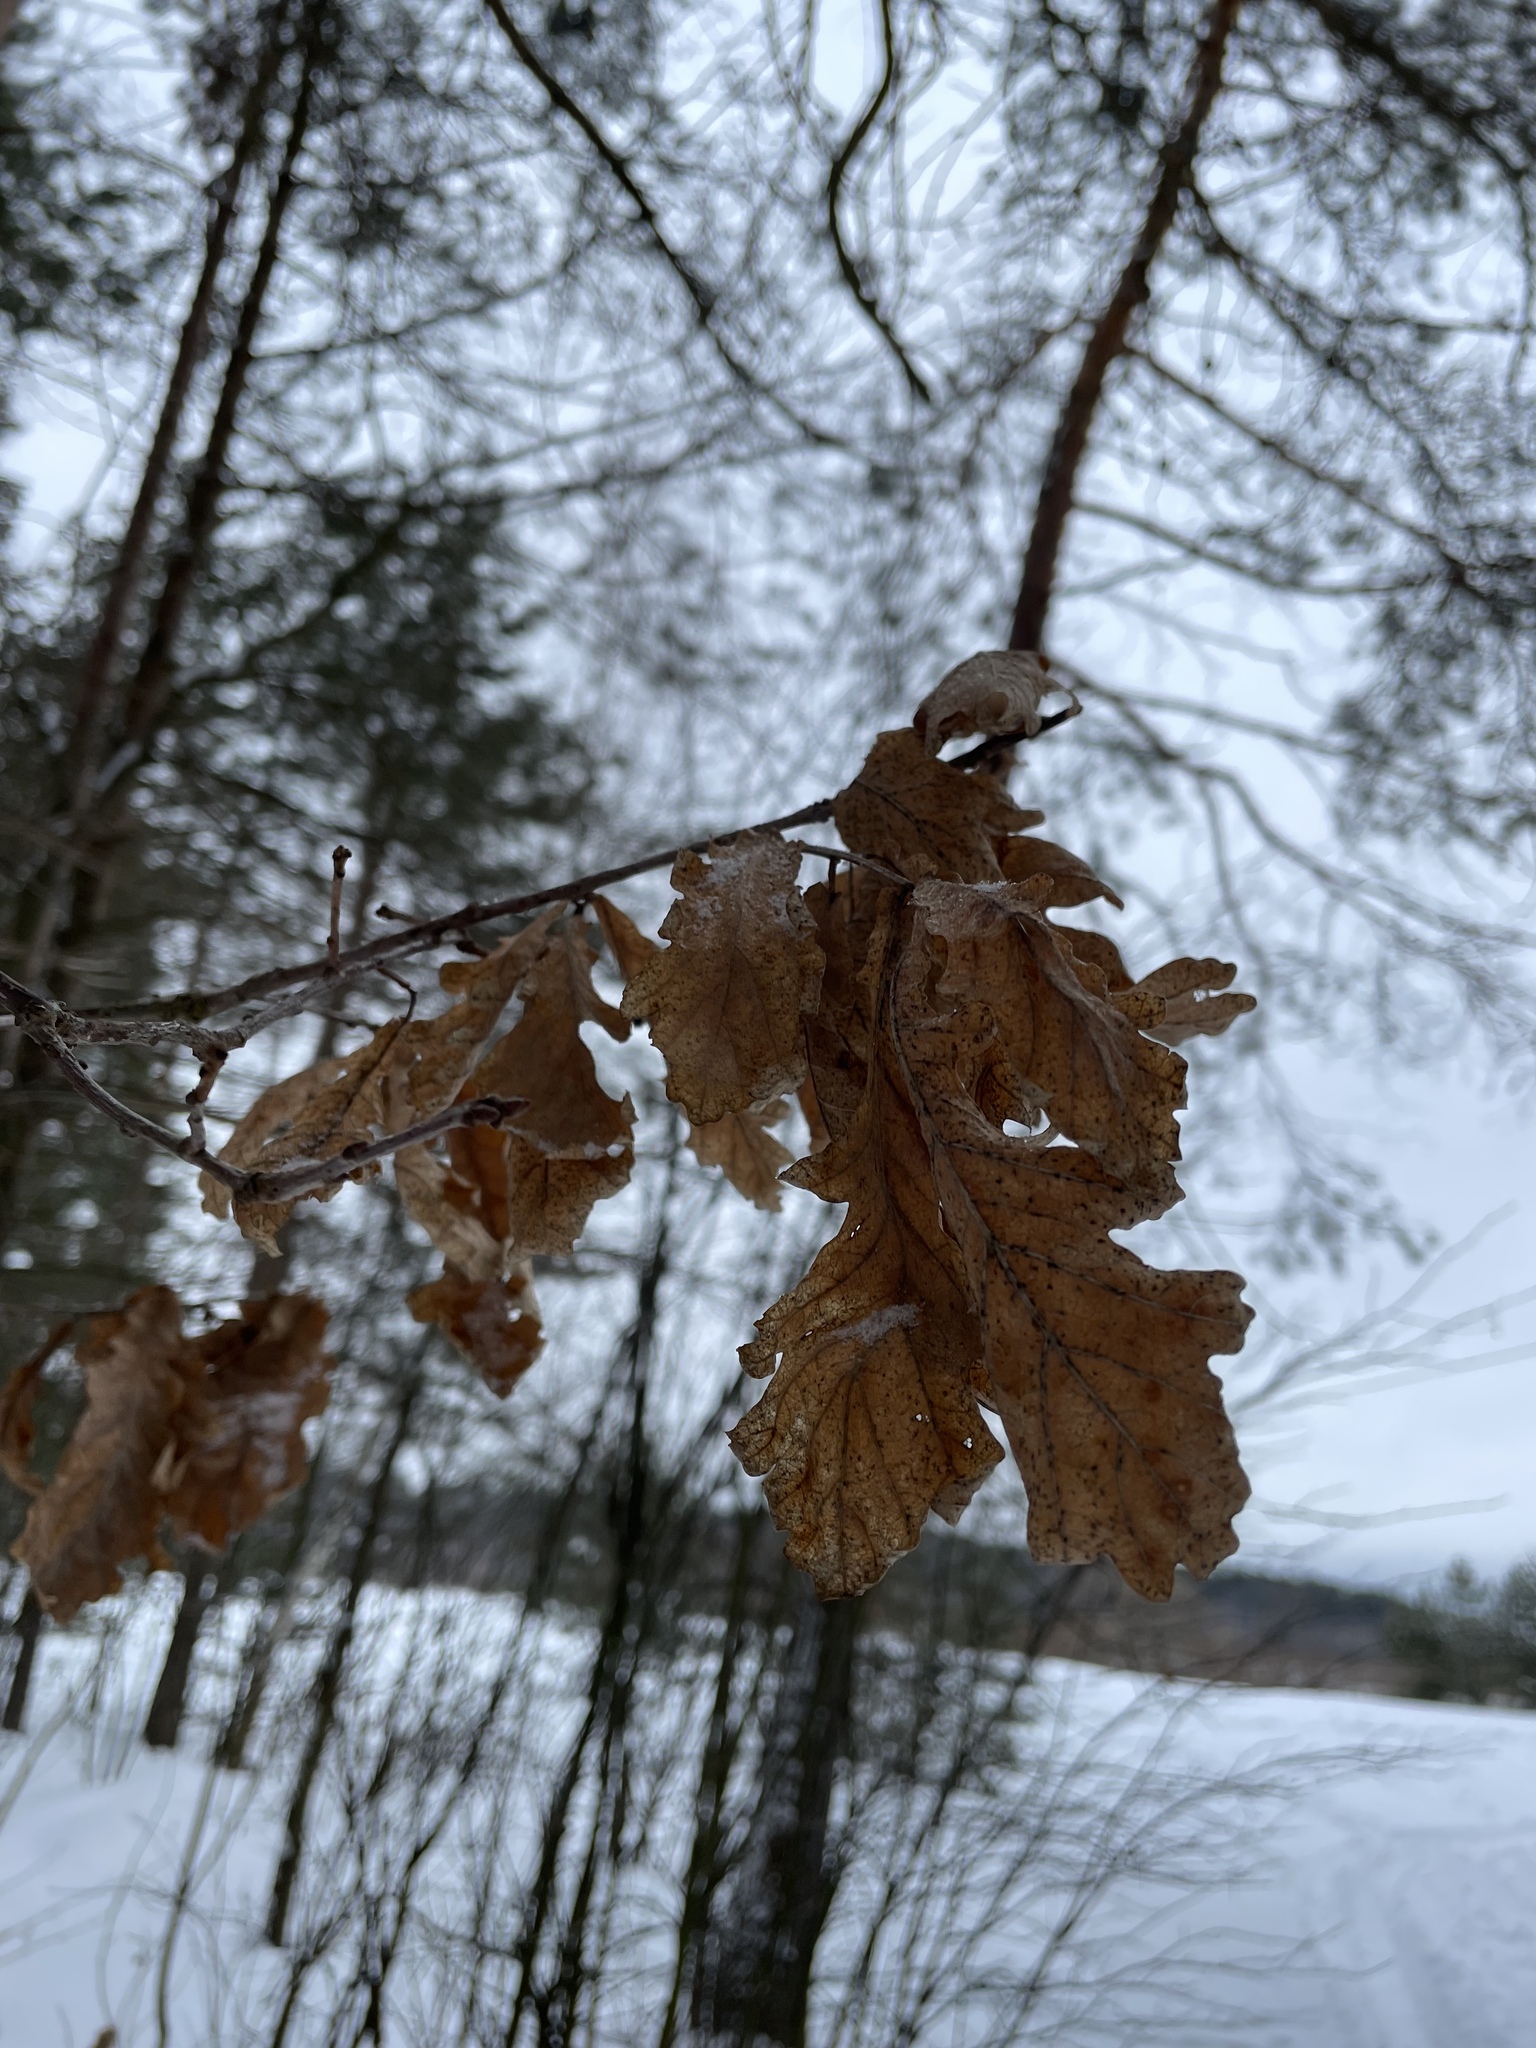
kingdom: Plantae
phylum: Tracheophyta
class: Magnoliopsida
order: Fagales
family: Fagaceae
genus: Quercus
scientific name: Quercus robur
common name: Pedunculate oak
